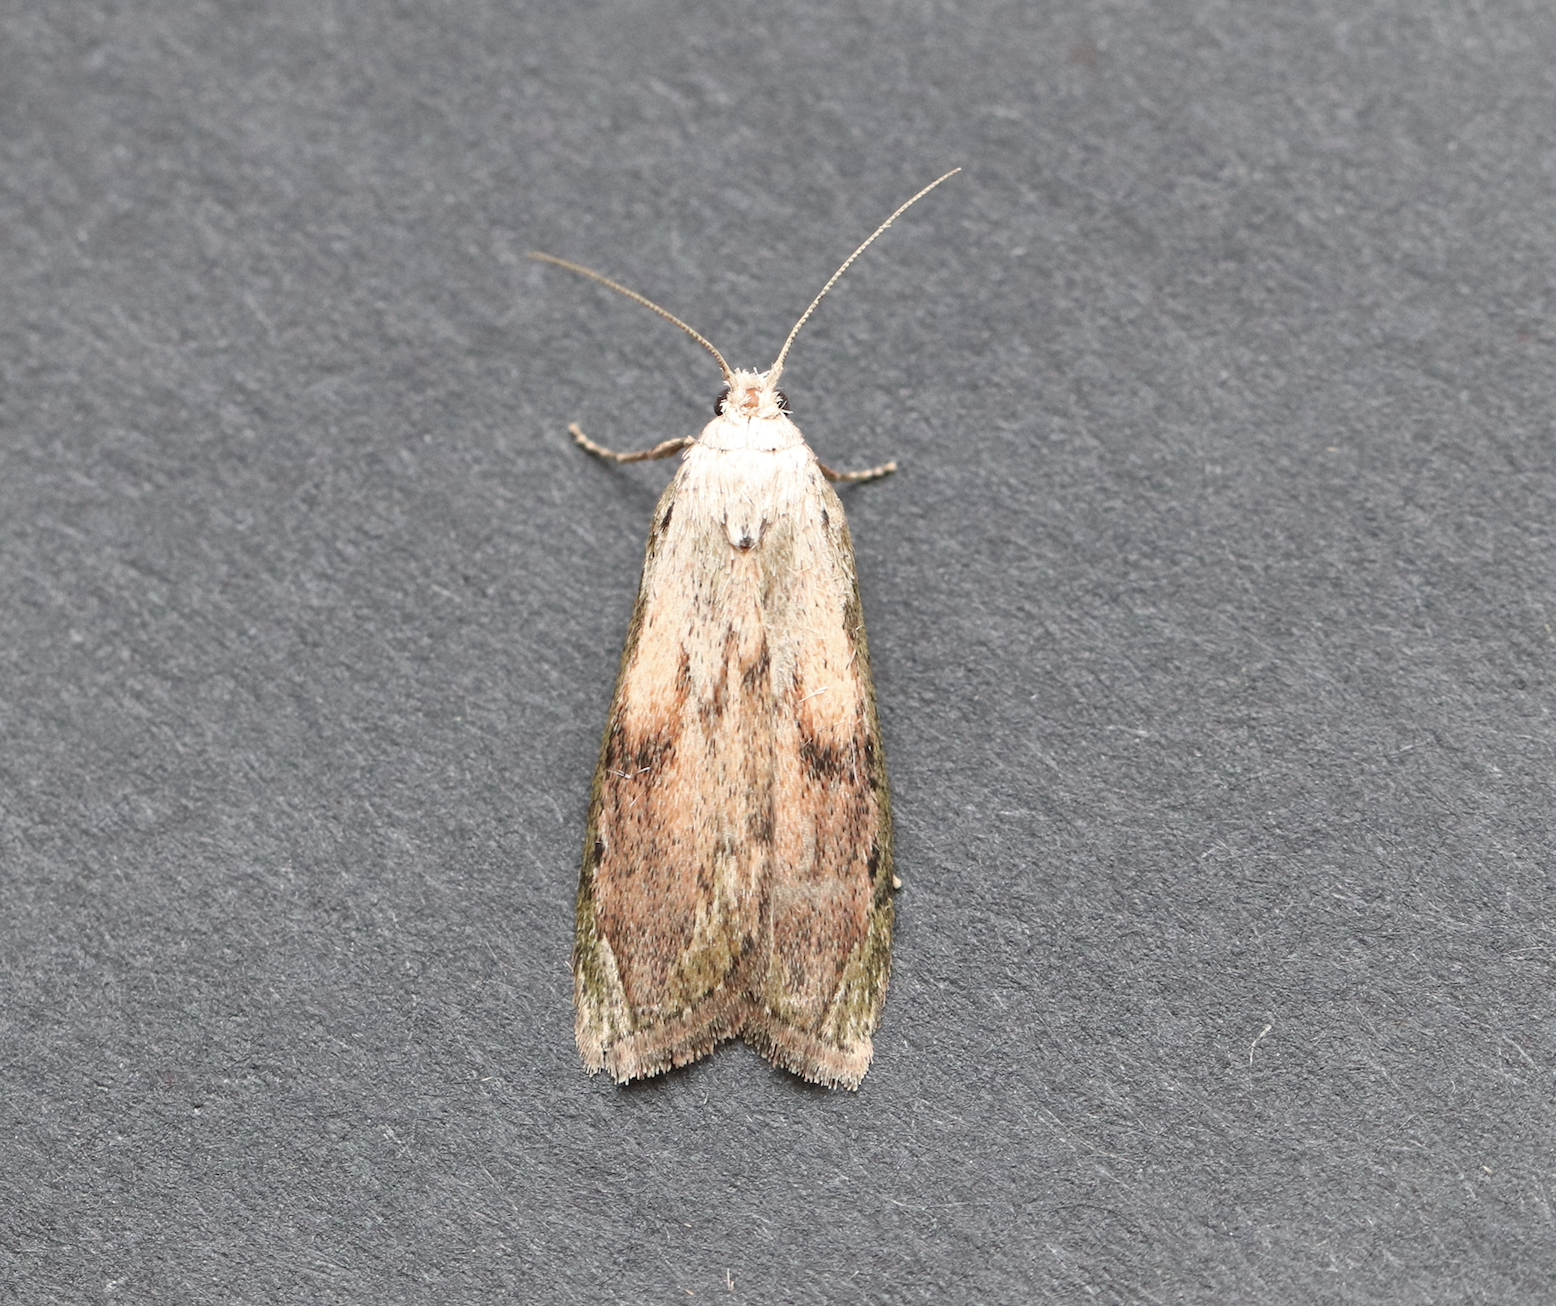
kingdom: Animalia
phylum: Arthropoda
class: Insecta
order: Lepidoptera
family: Pyralidae
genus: Aphomia
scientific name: Aphomia sociella
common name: Bee moth
